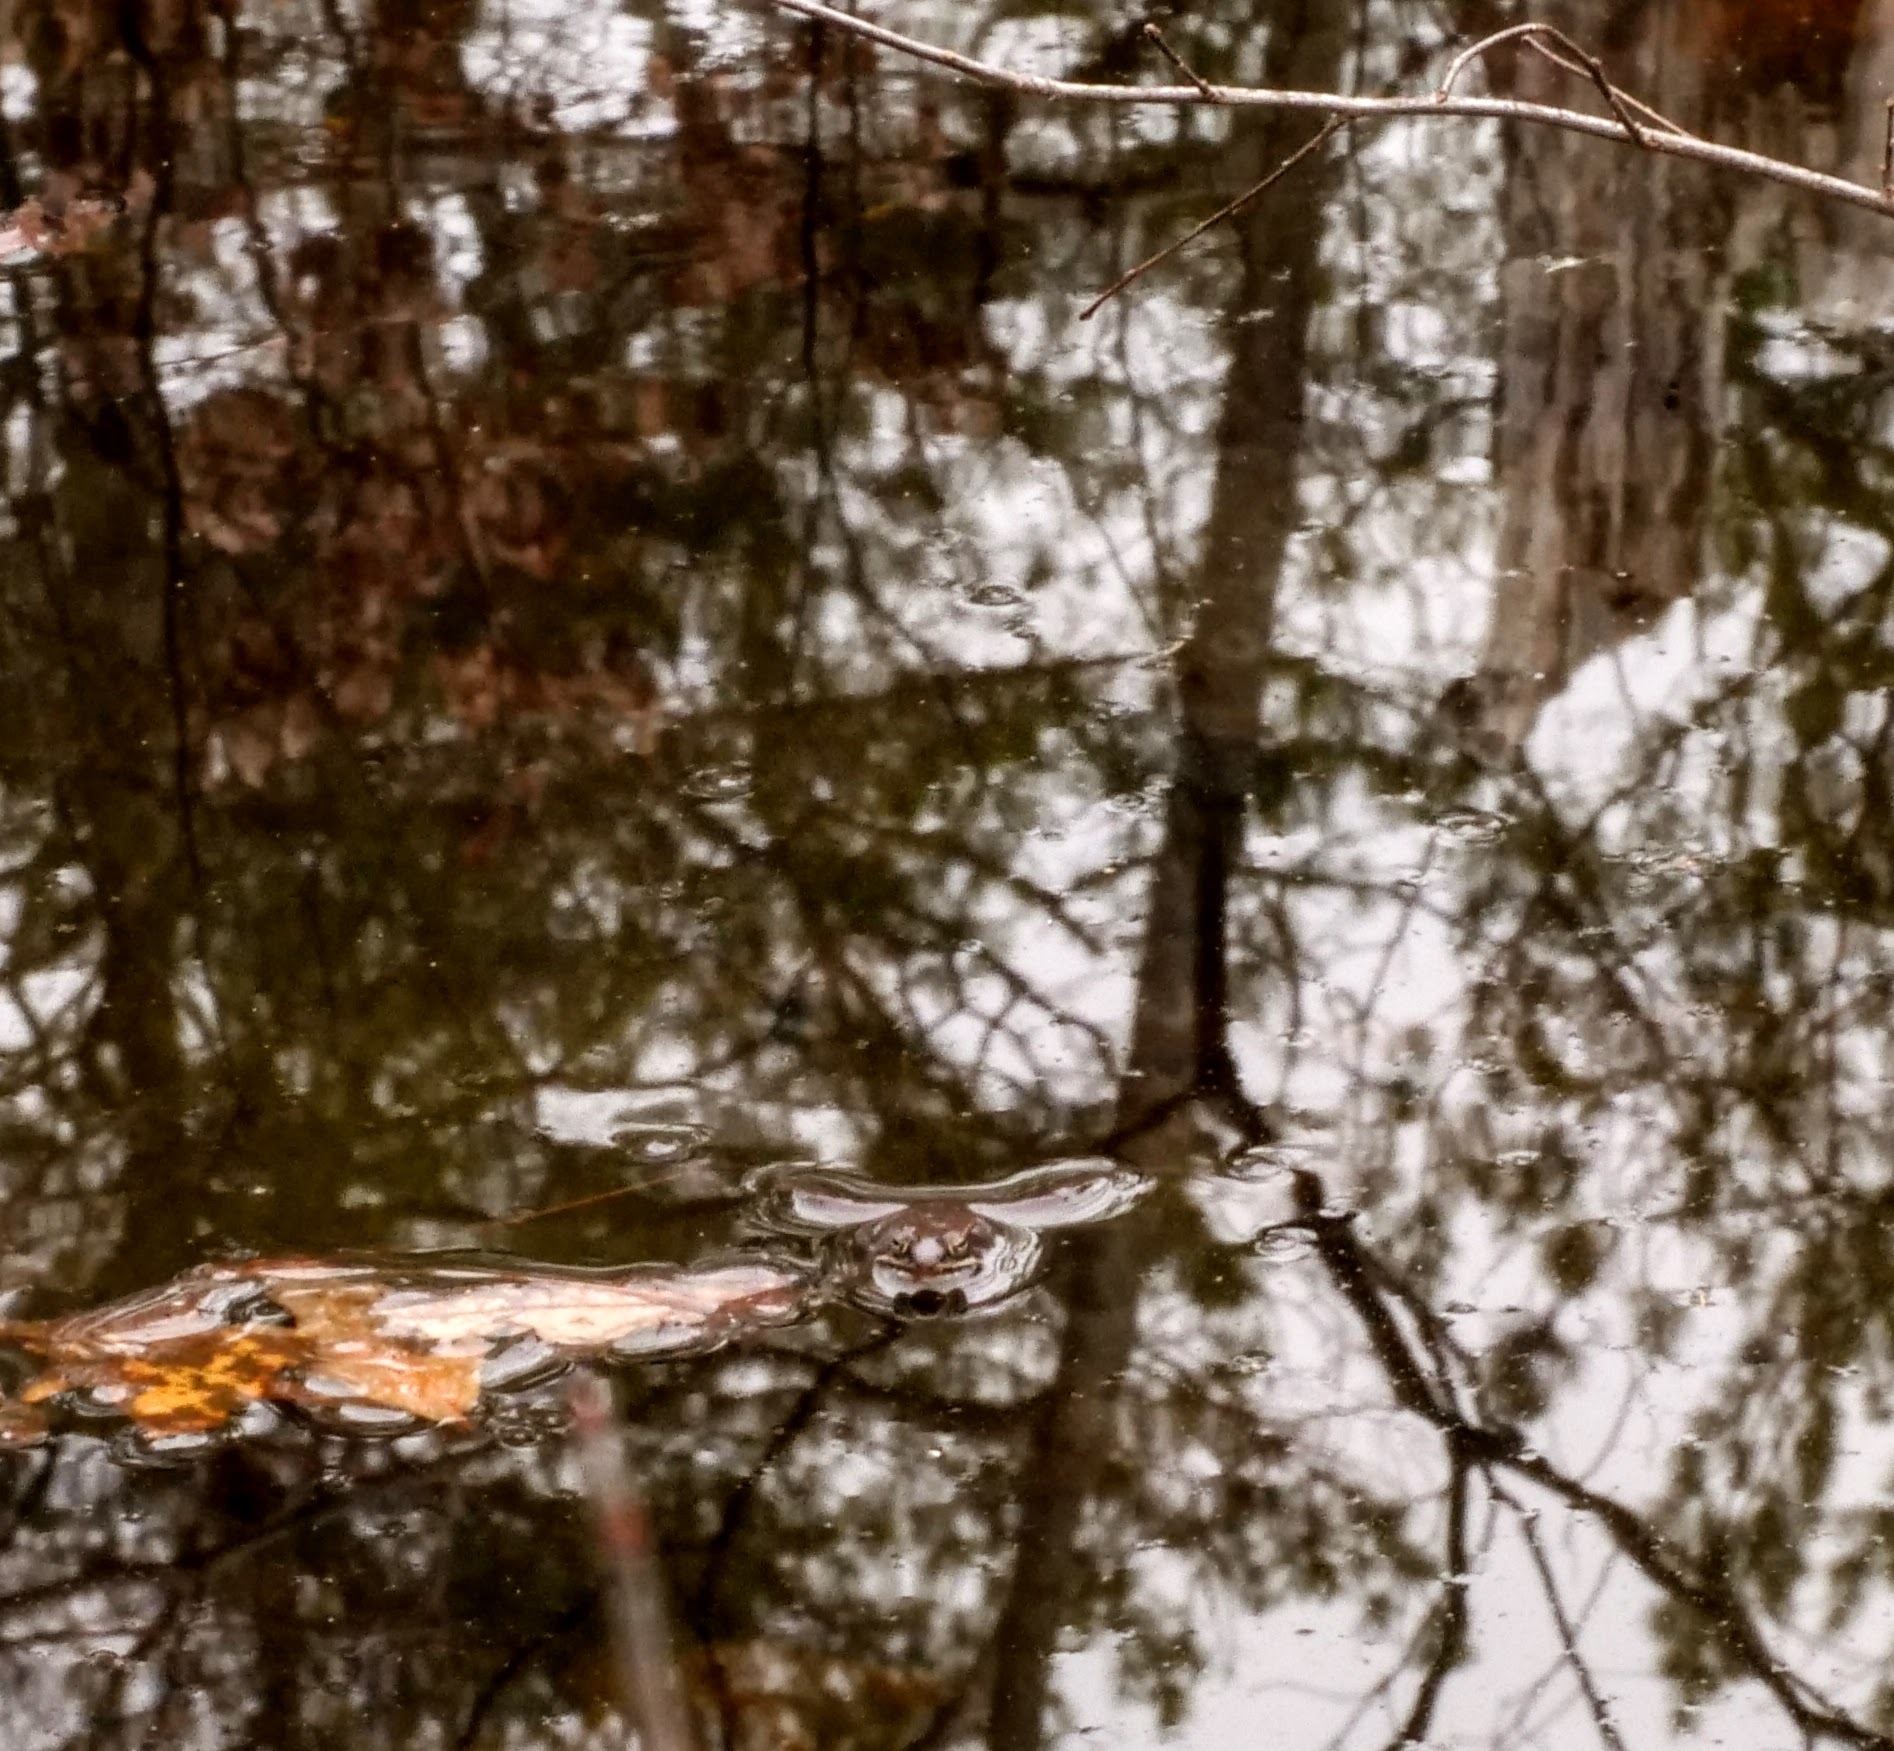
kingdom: Animalia
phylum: Chordata
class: Amphibia
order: Anura
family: Ranidae
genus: Lithobates
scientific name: Lithobates sylvaticus
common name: Wood frog
